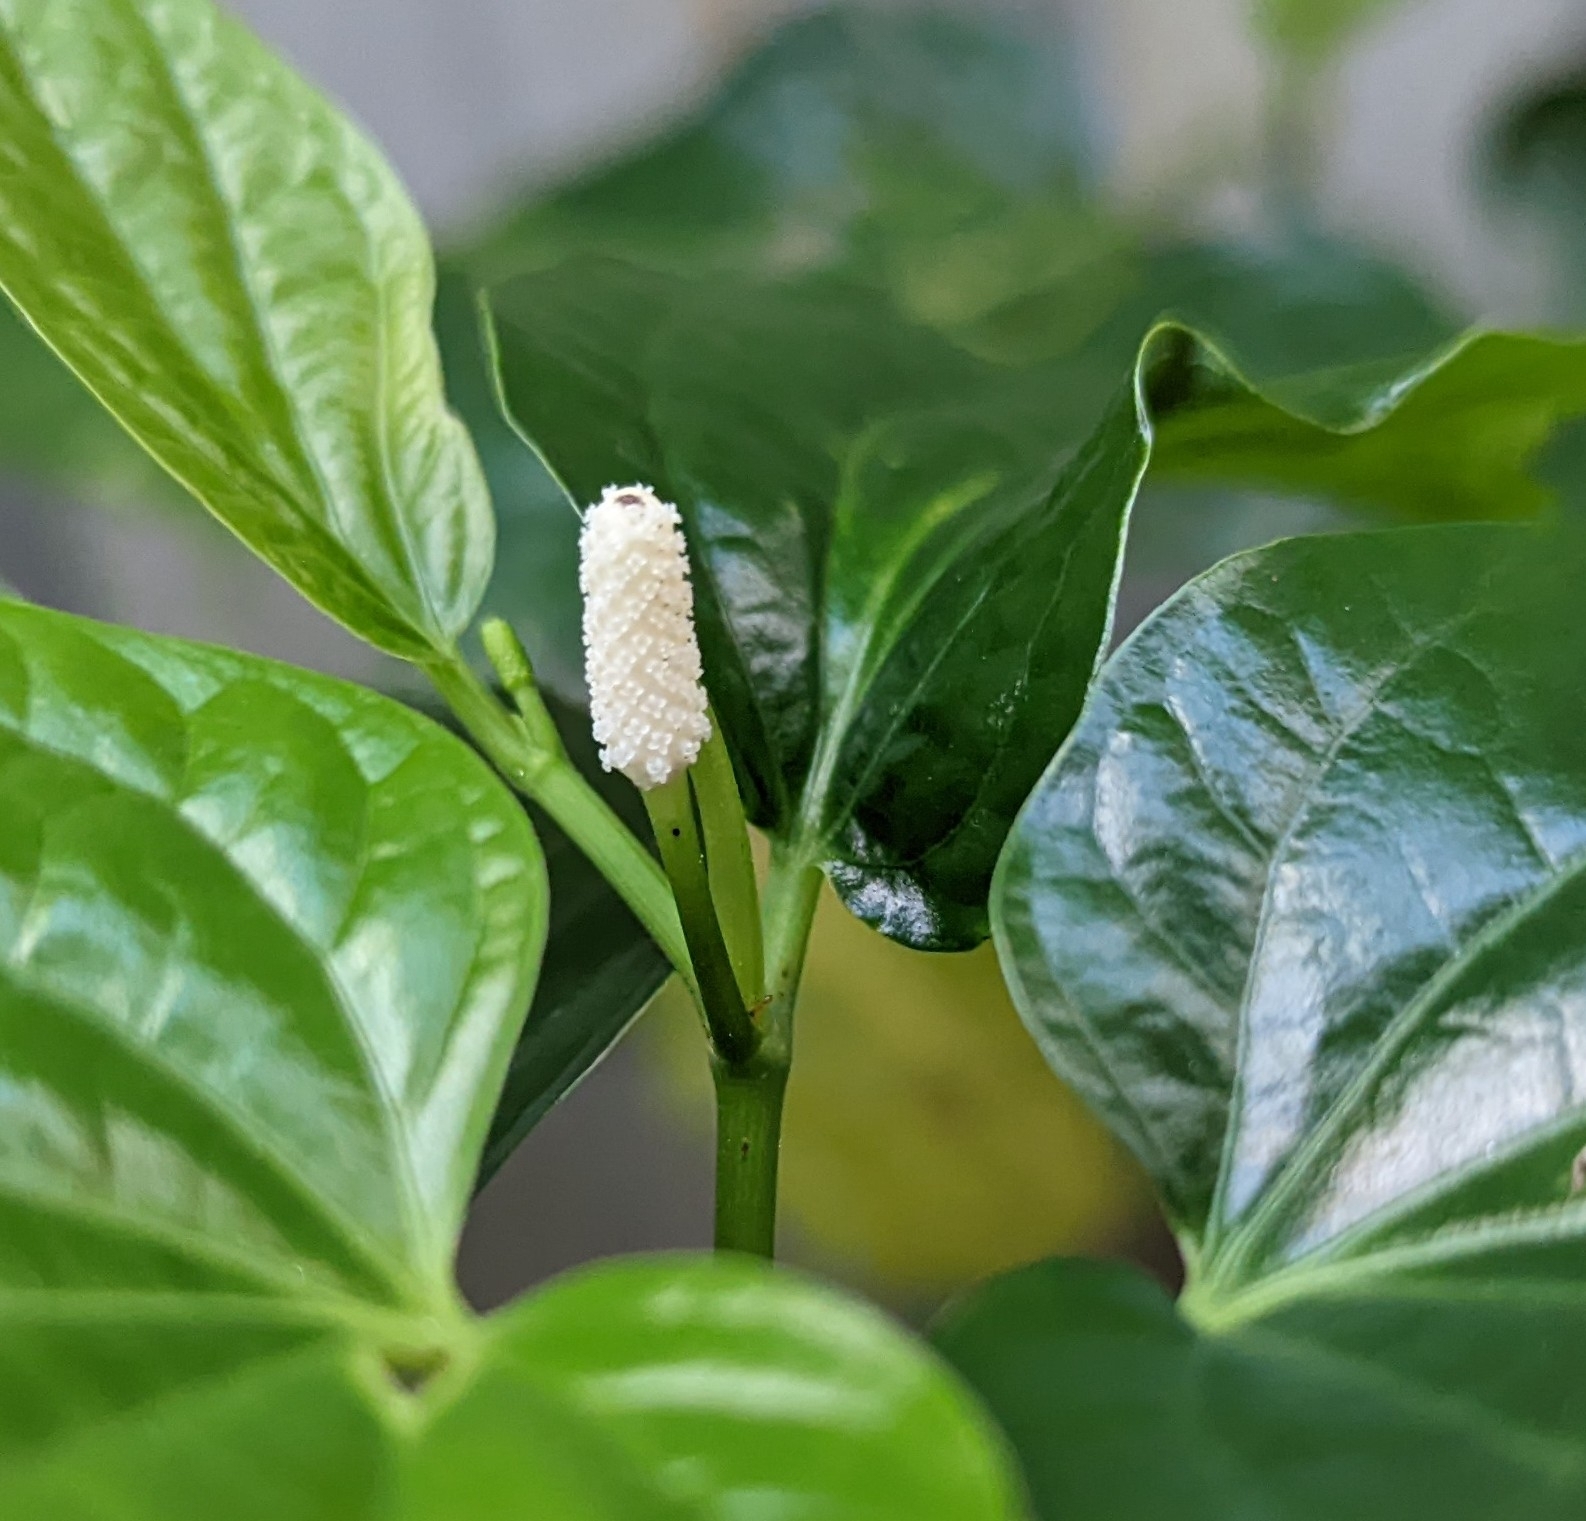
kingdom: Plantae
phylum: Tracheophyta
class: Magnoliopsida
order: Piperales
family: Piperaceae
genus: Piper
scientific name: Piper sarmentosum
